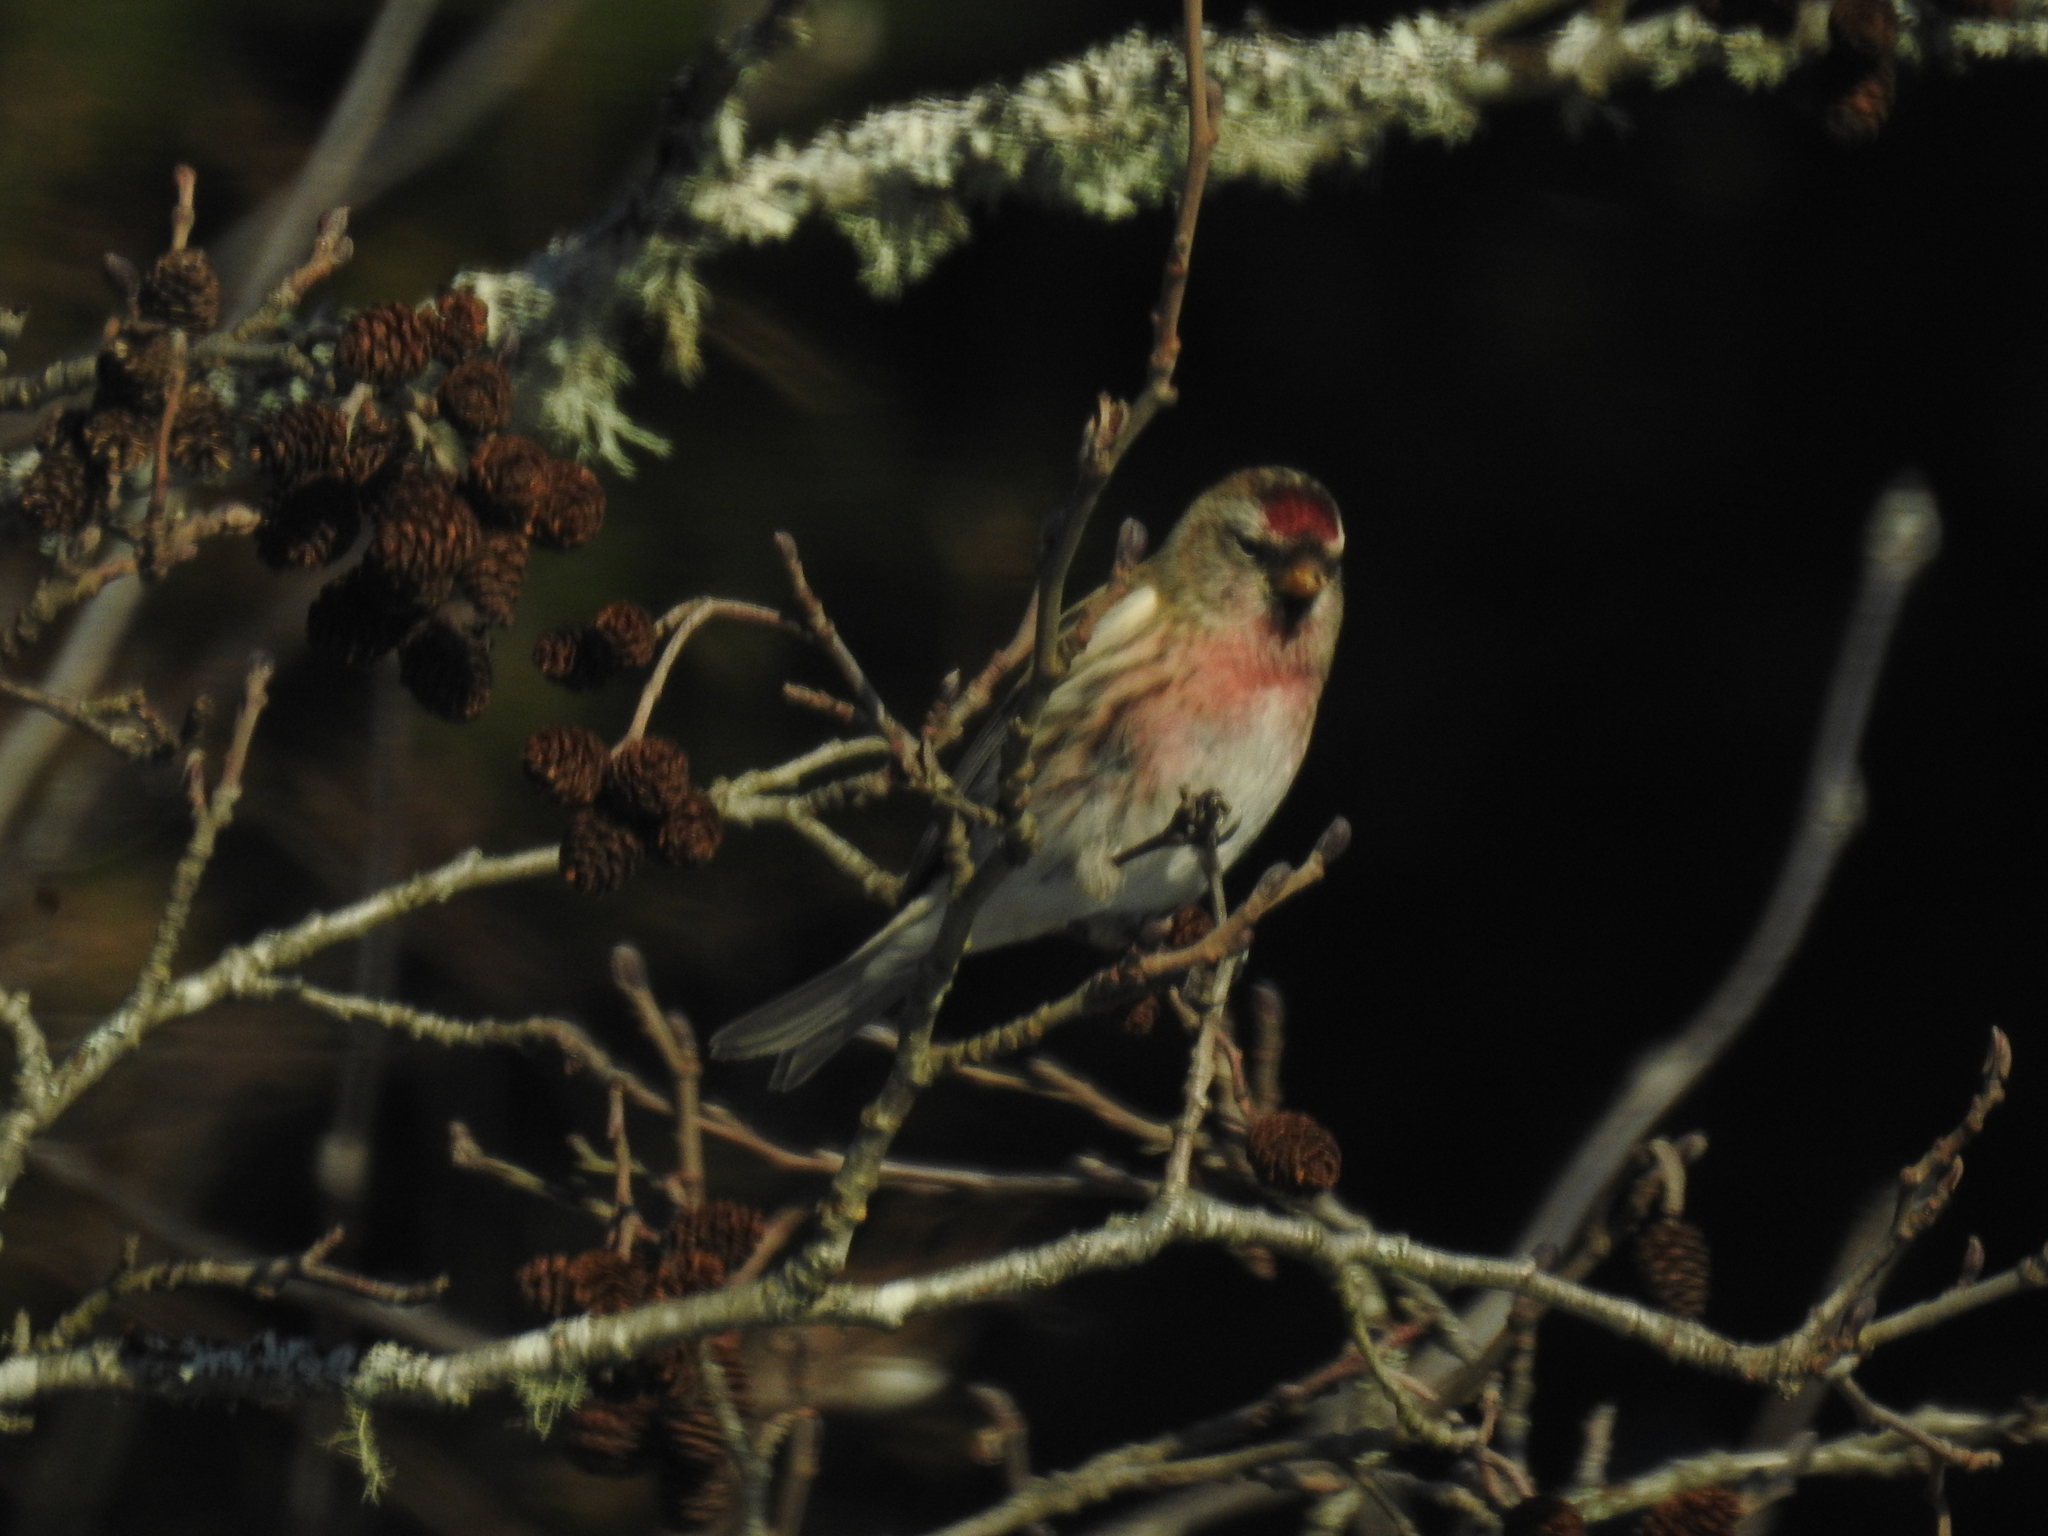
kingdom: Animalia
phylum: Chordata
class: Aves
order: Passeriformes
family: Fringillidae
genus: Acanthis
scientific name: Acanthis flammea
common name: Common redpoll
